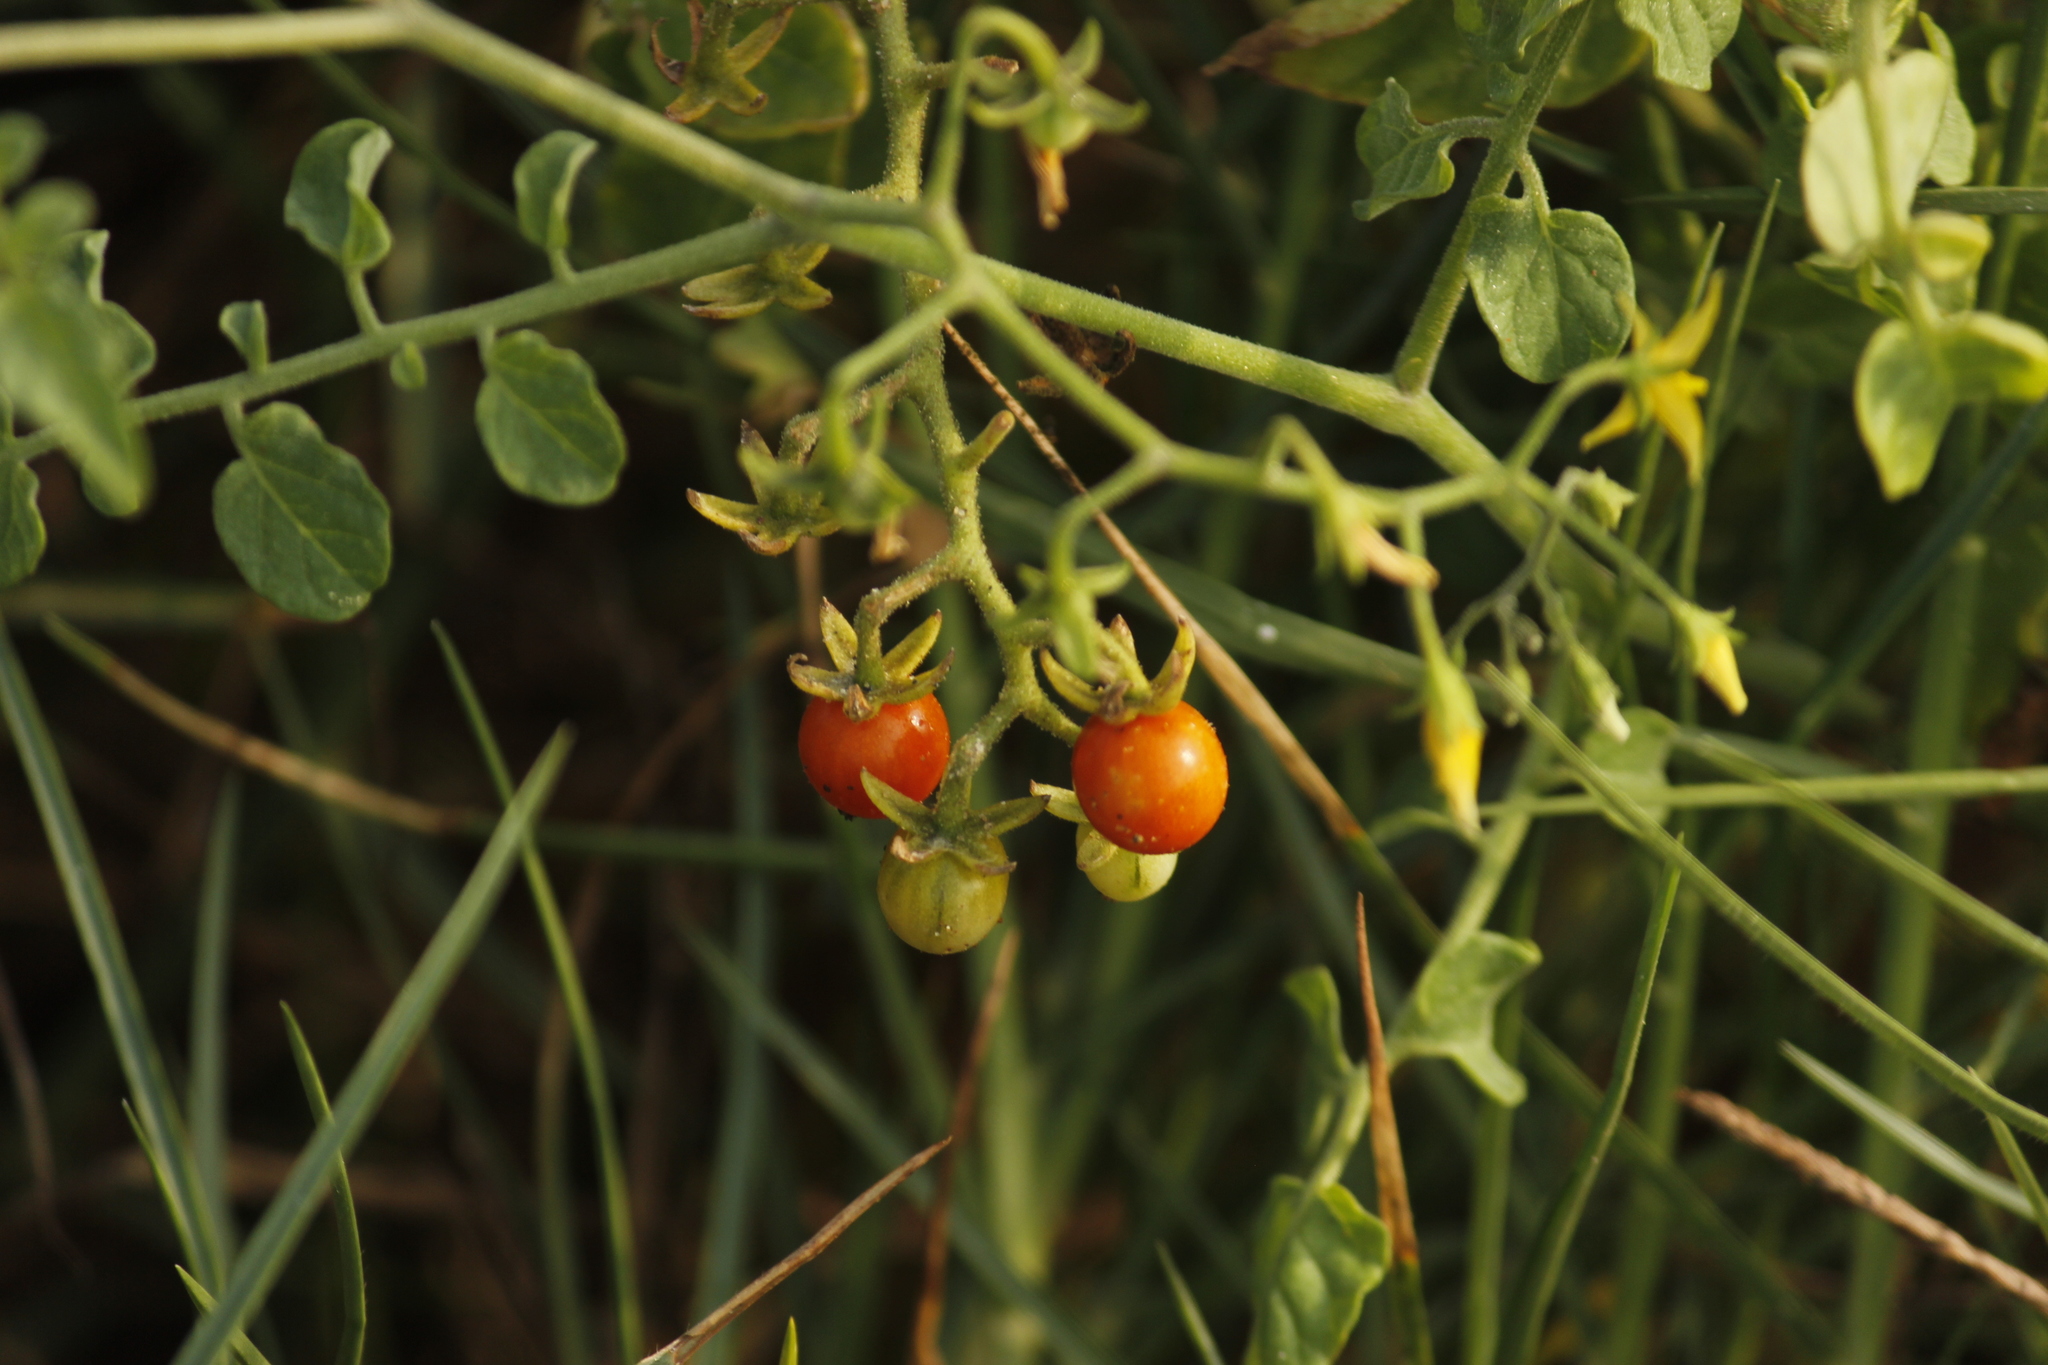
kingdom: Plantae
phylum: Tracheophyta
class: Magnoliopsida
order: Solanales
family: Solanaceae
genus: Solanum
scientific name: Solanum pimpinellifolium
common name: Currant-tomato
